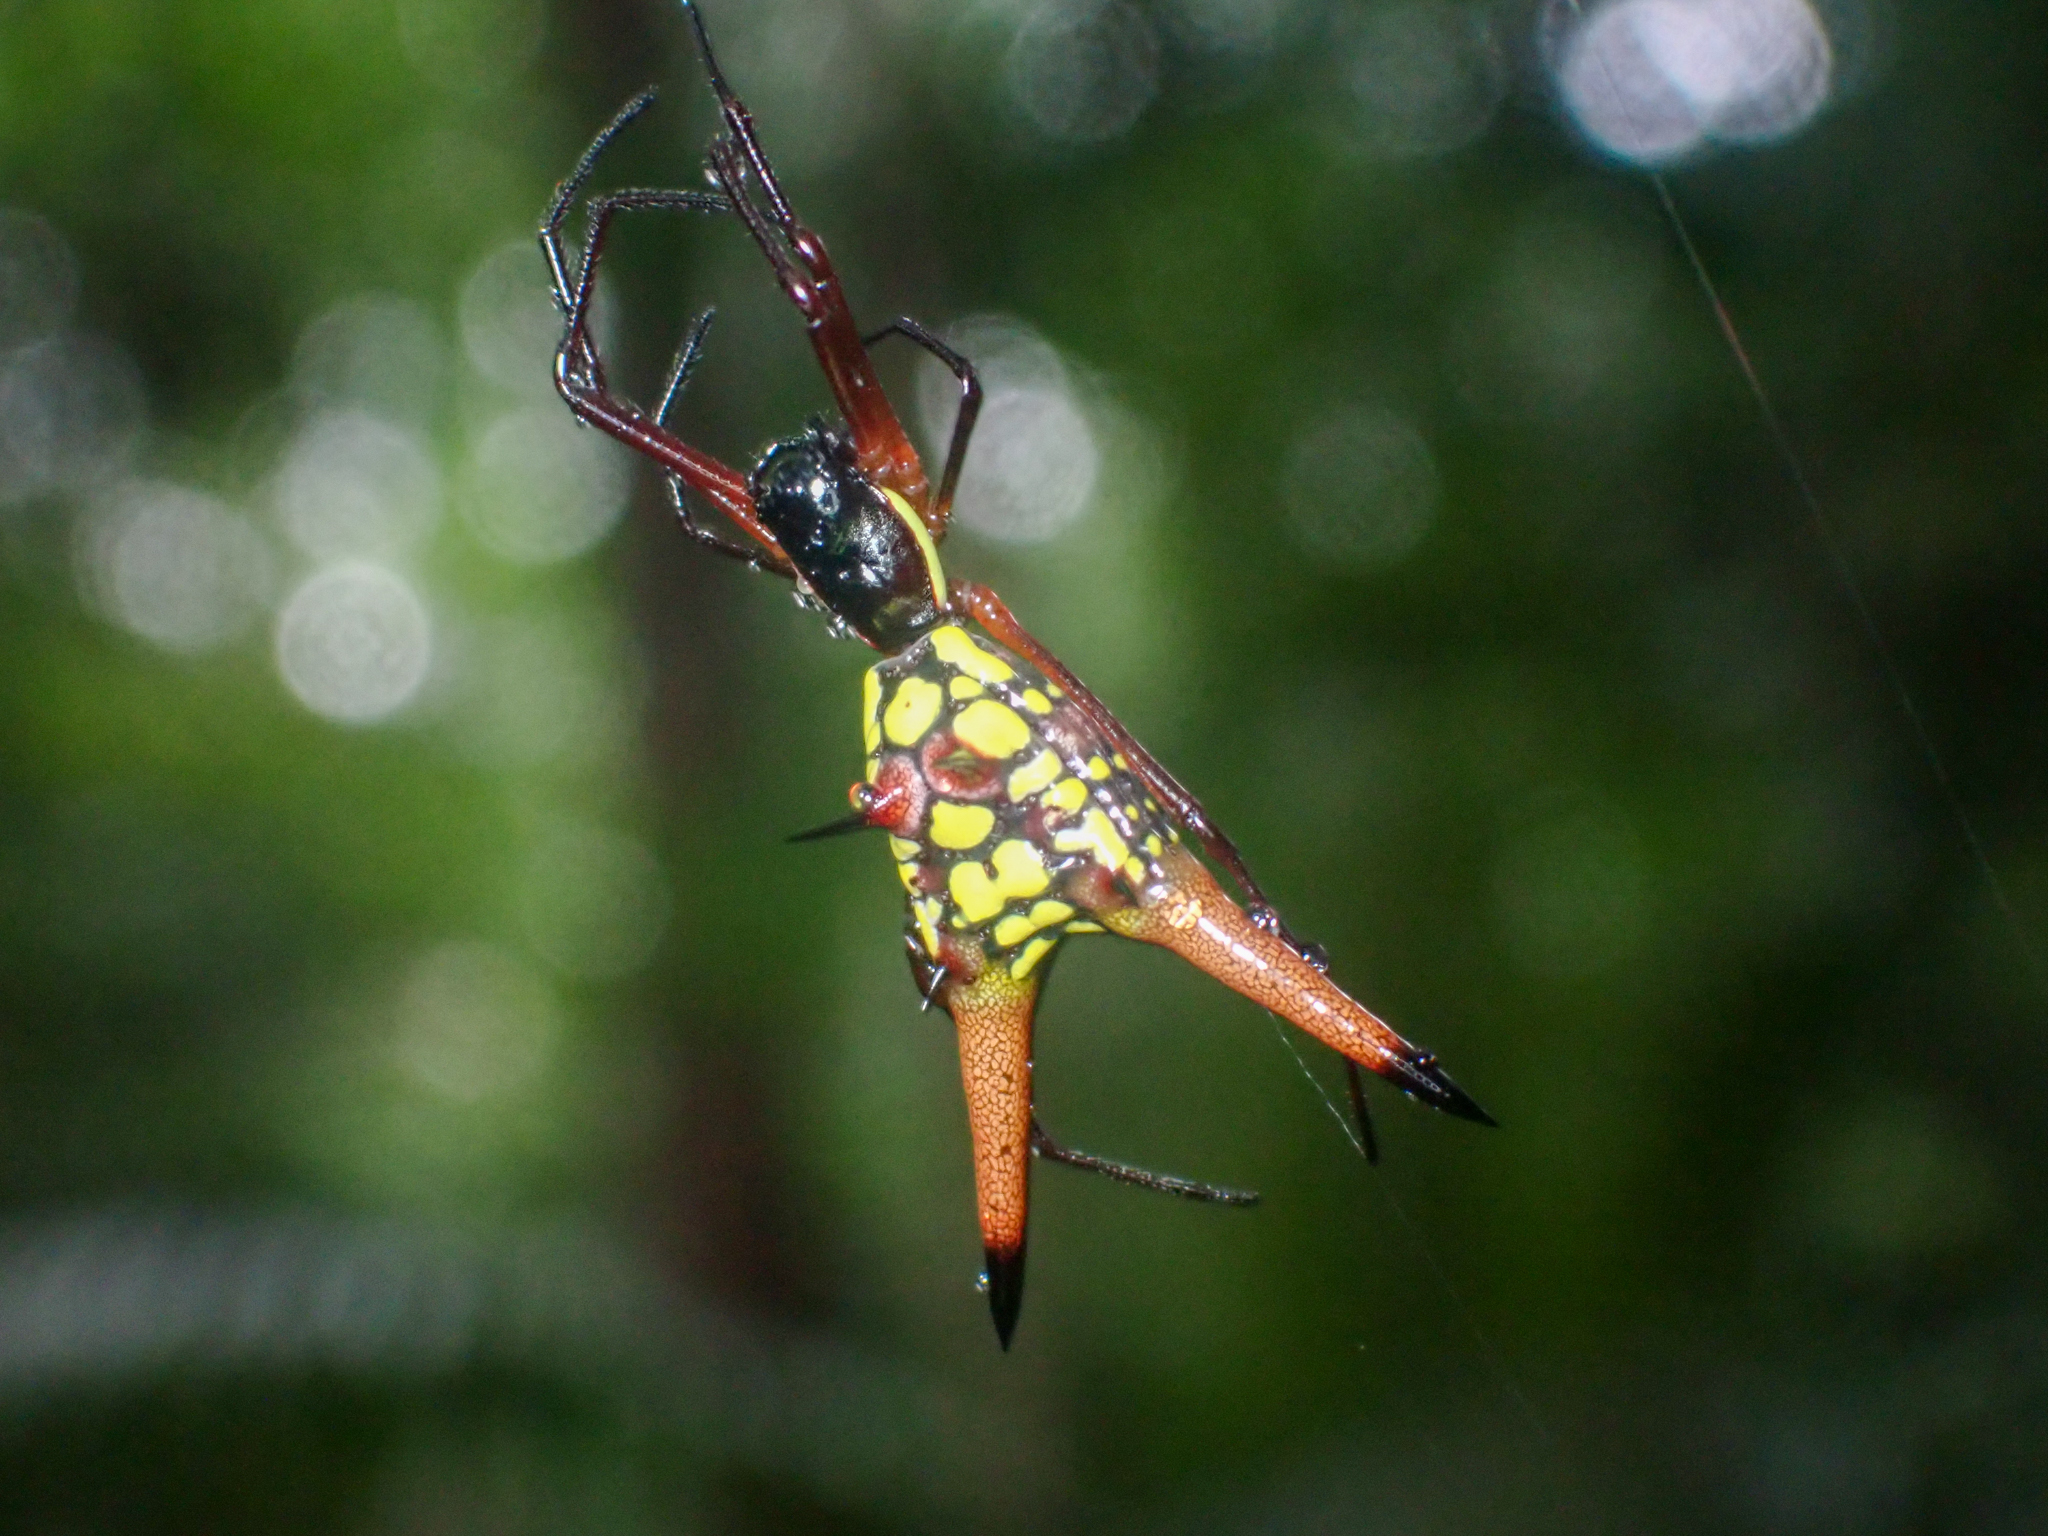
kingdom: Animalia
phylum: Arthropoda
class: Arachnida
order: Araneae
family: Araneidae
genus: Micrathena
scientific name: Micrathena brevipes
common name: Orb weavers
